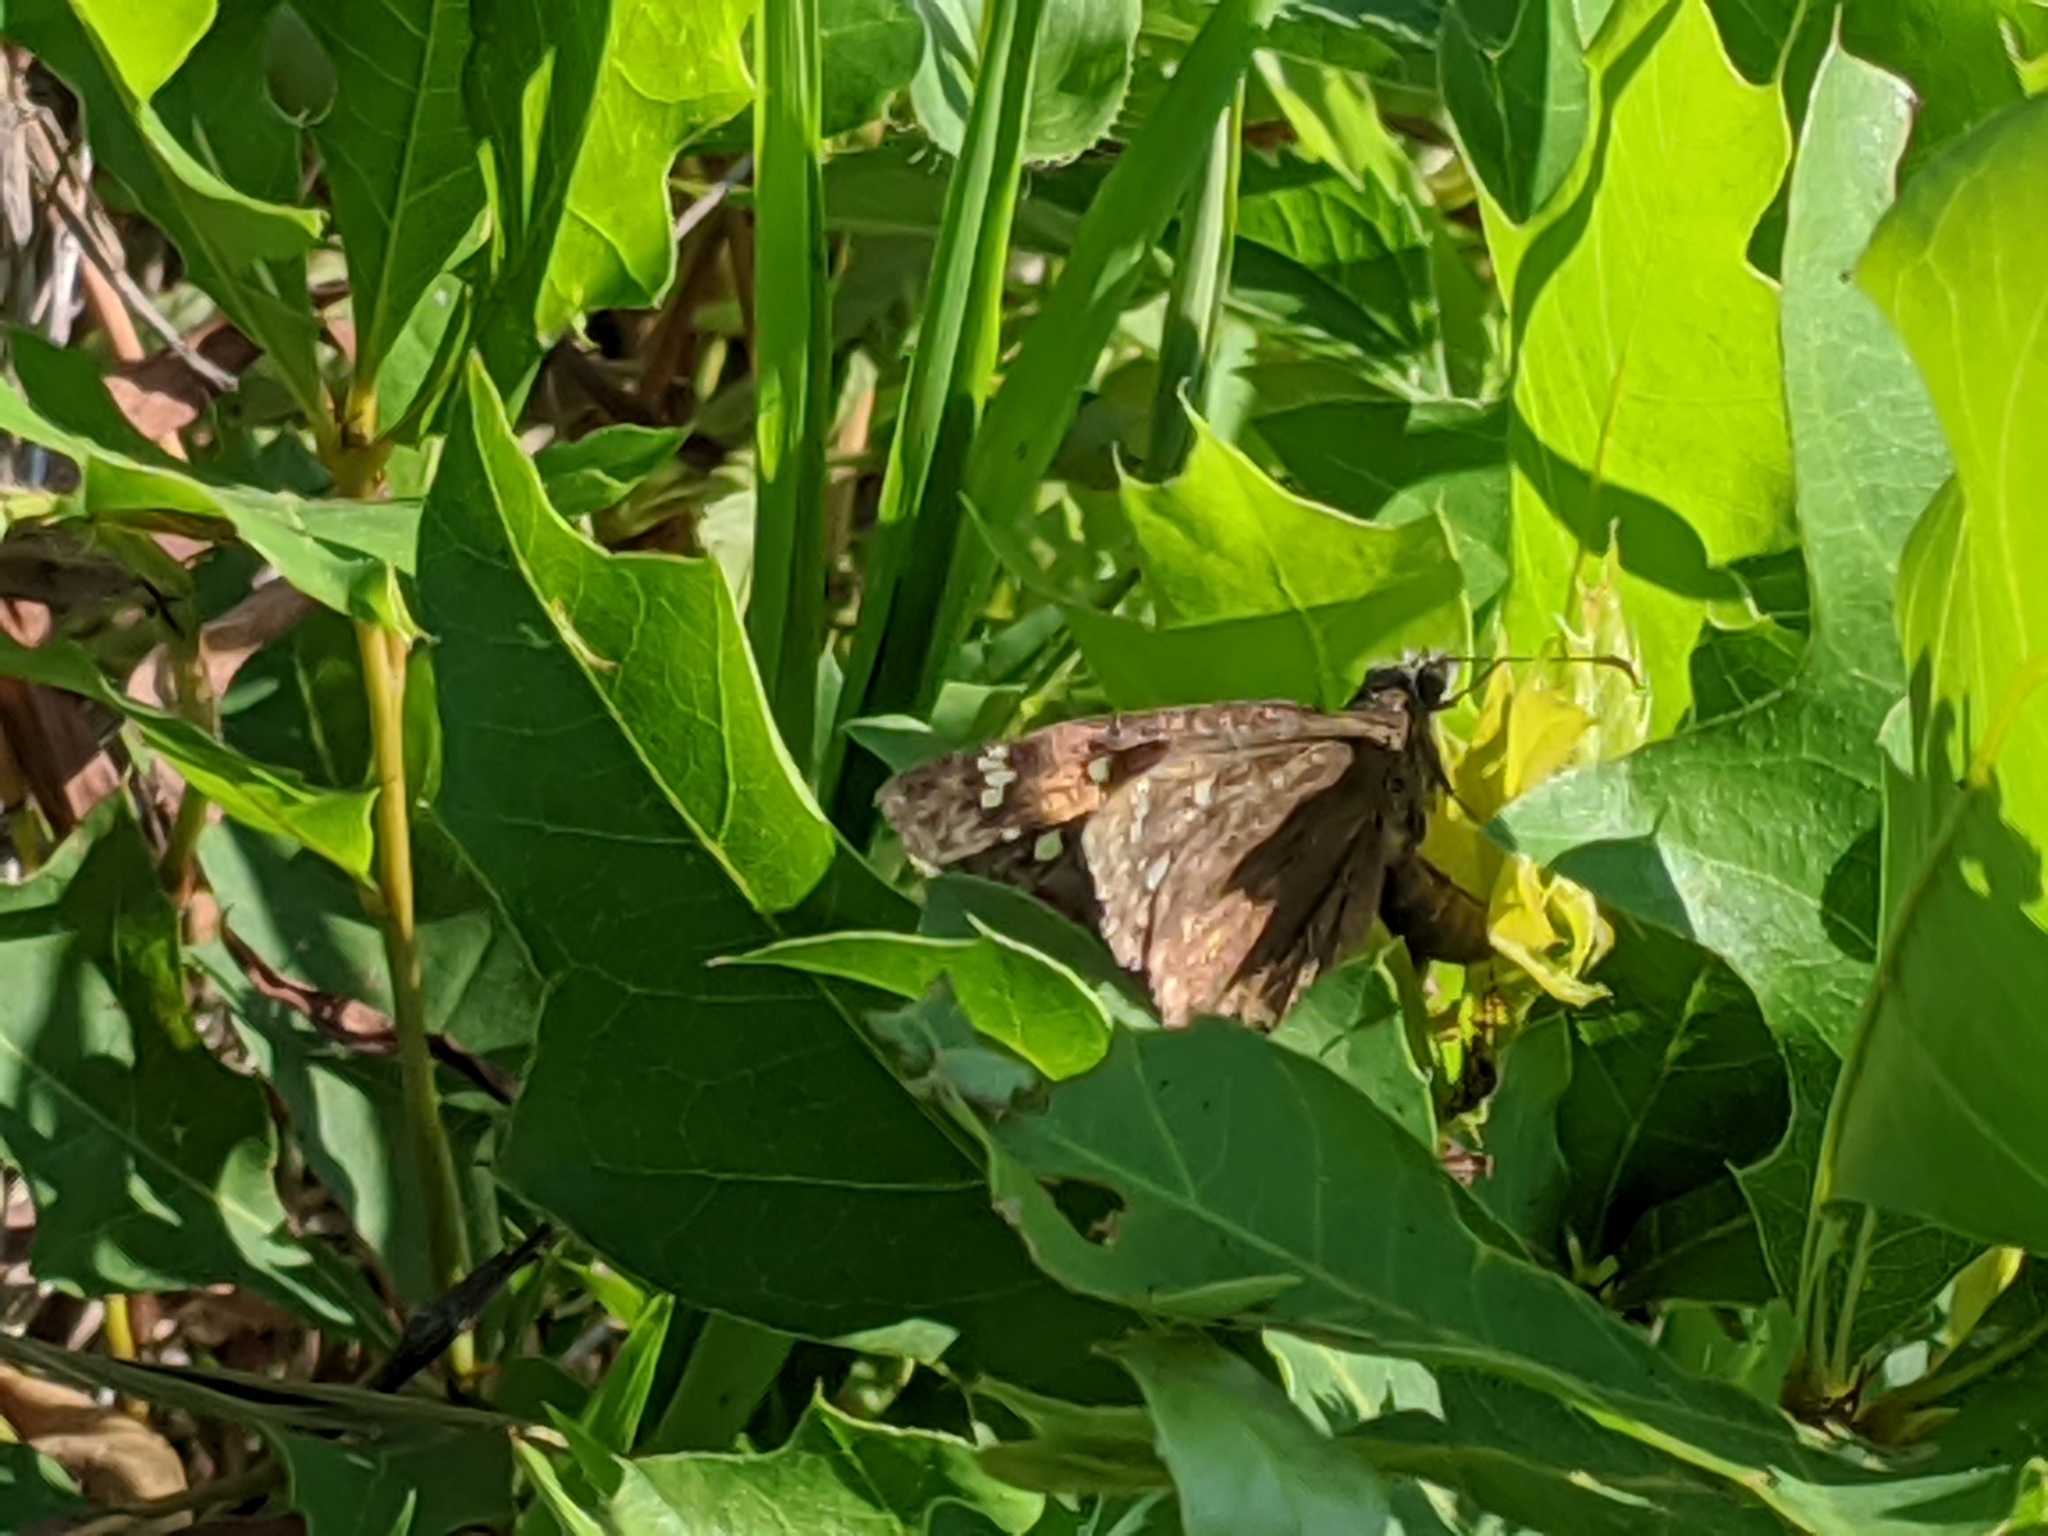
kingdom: Animalia
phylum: Arthropoda
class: Insecta
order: Lepidoptera
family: Hesperiidae
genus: Erynnis
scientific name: Erynnis horatius
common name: Horace's duskywing
